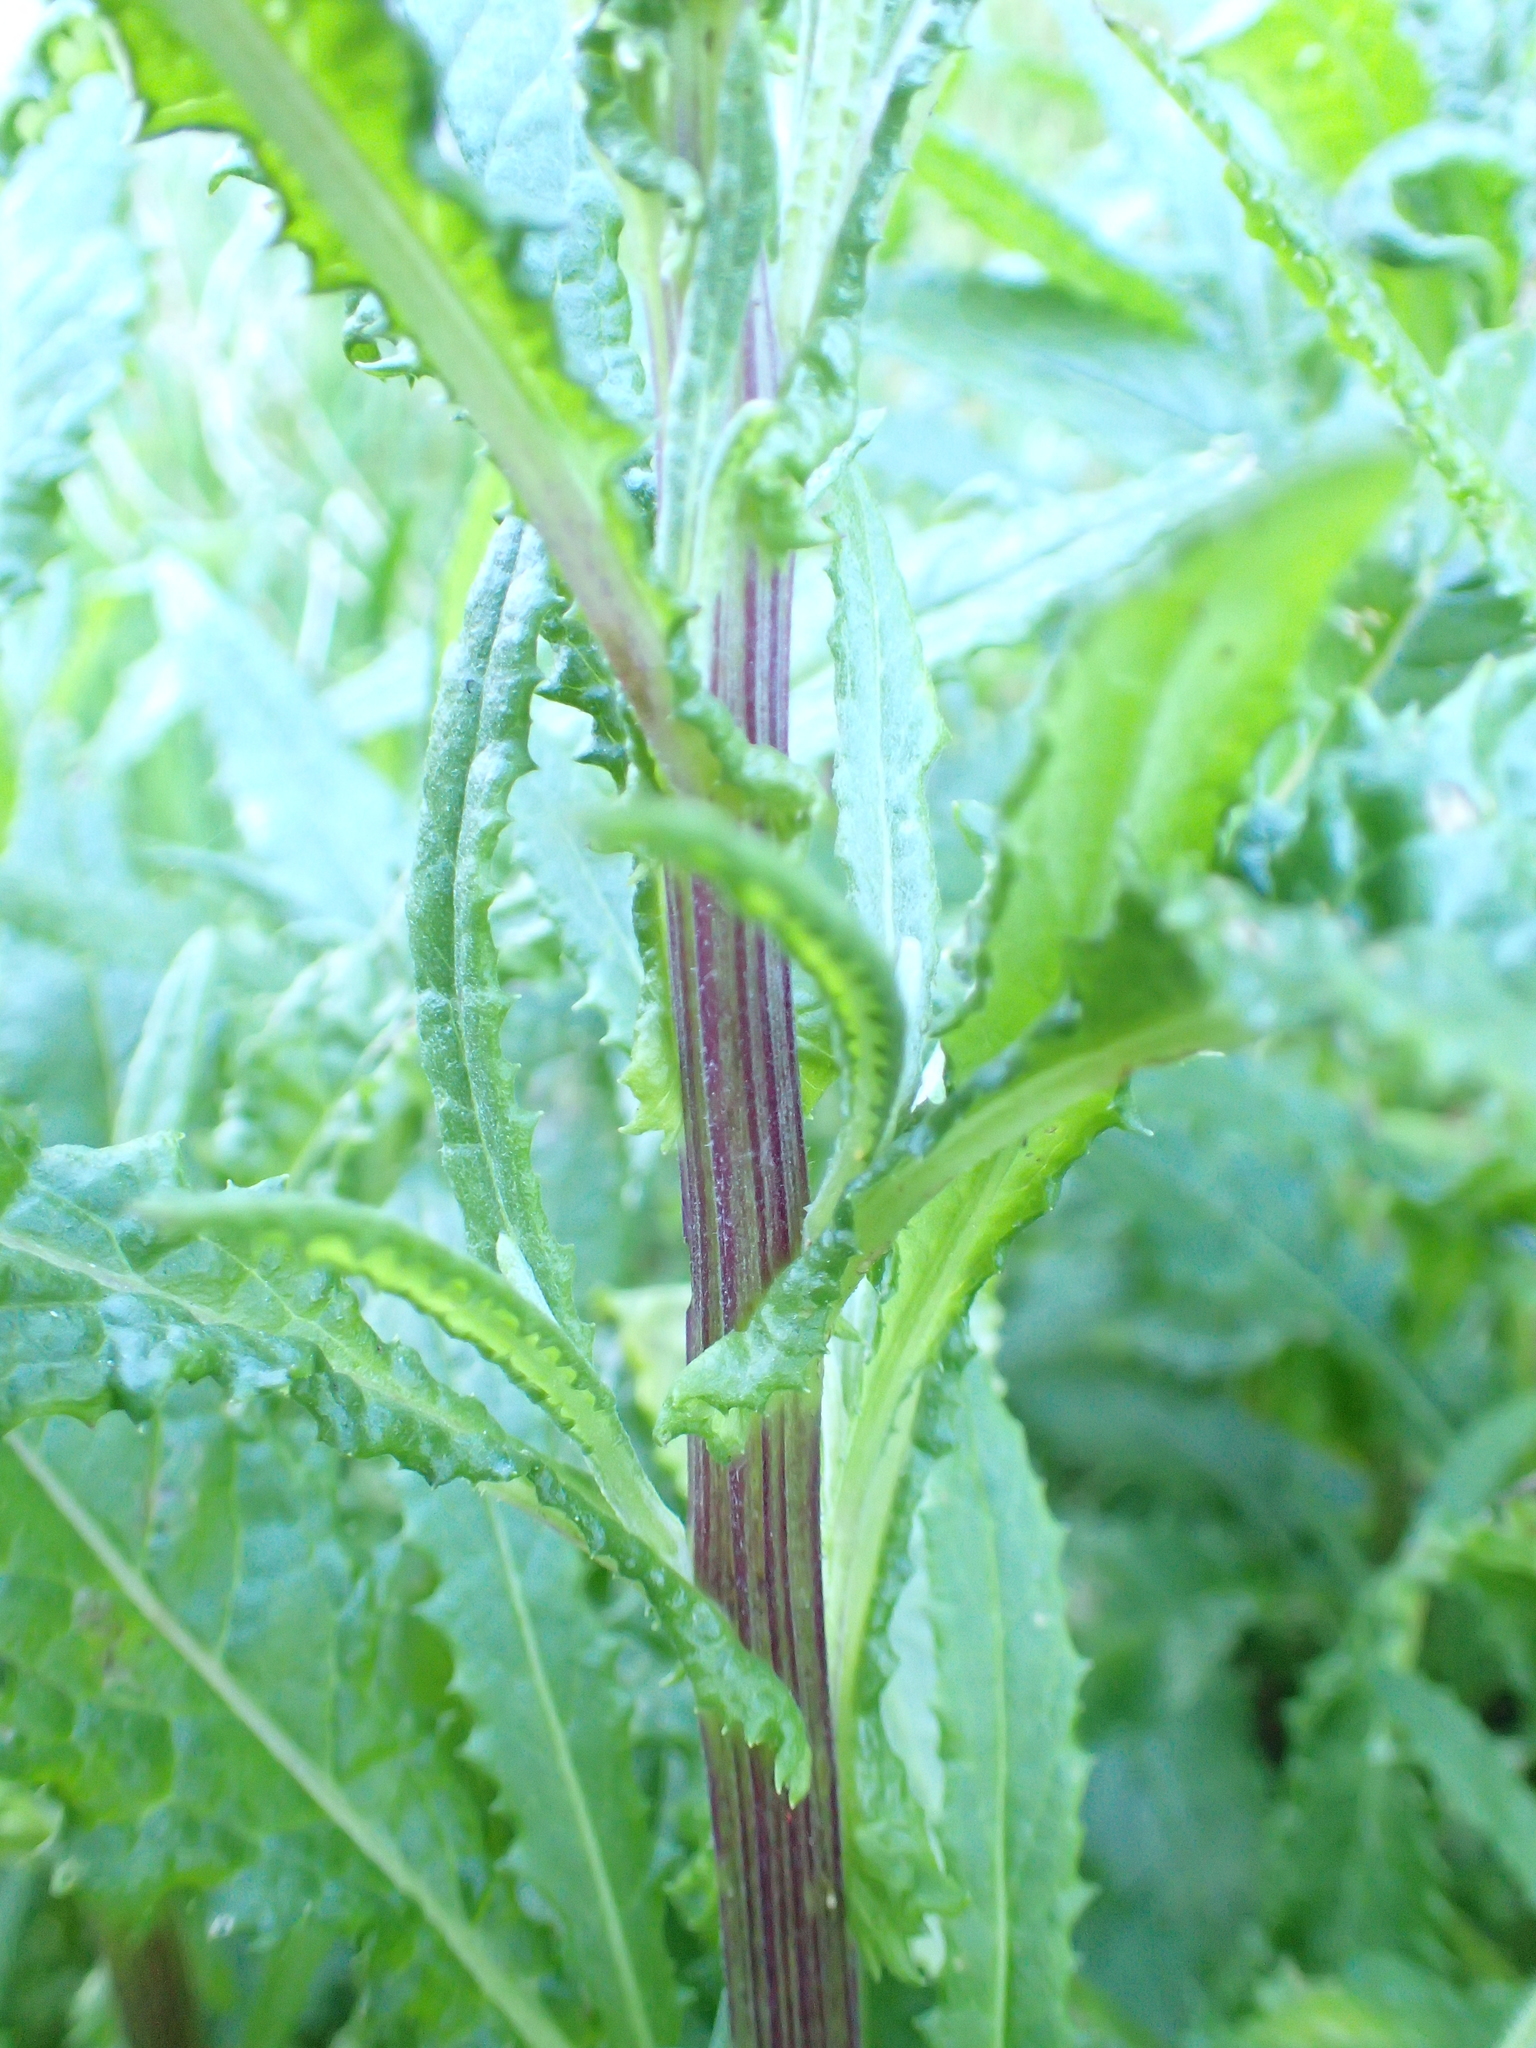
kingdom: Plantae
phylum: Tracheophyta
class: Magnoliopsida
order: Asterales
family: Asteraceae
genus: Senecio
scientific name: Senecio minimus
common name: Toothed fireweed
